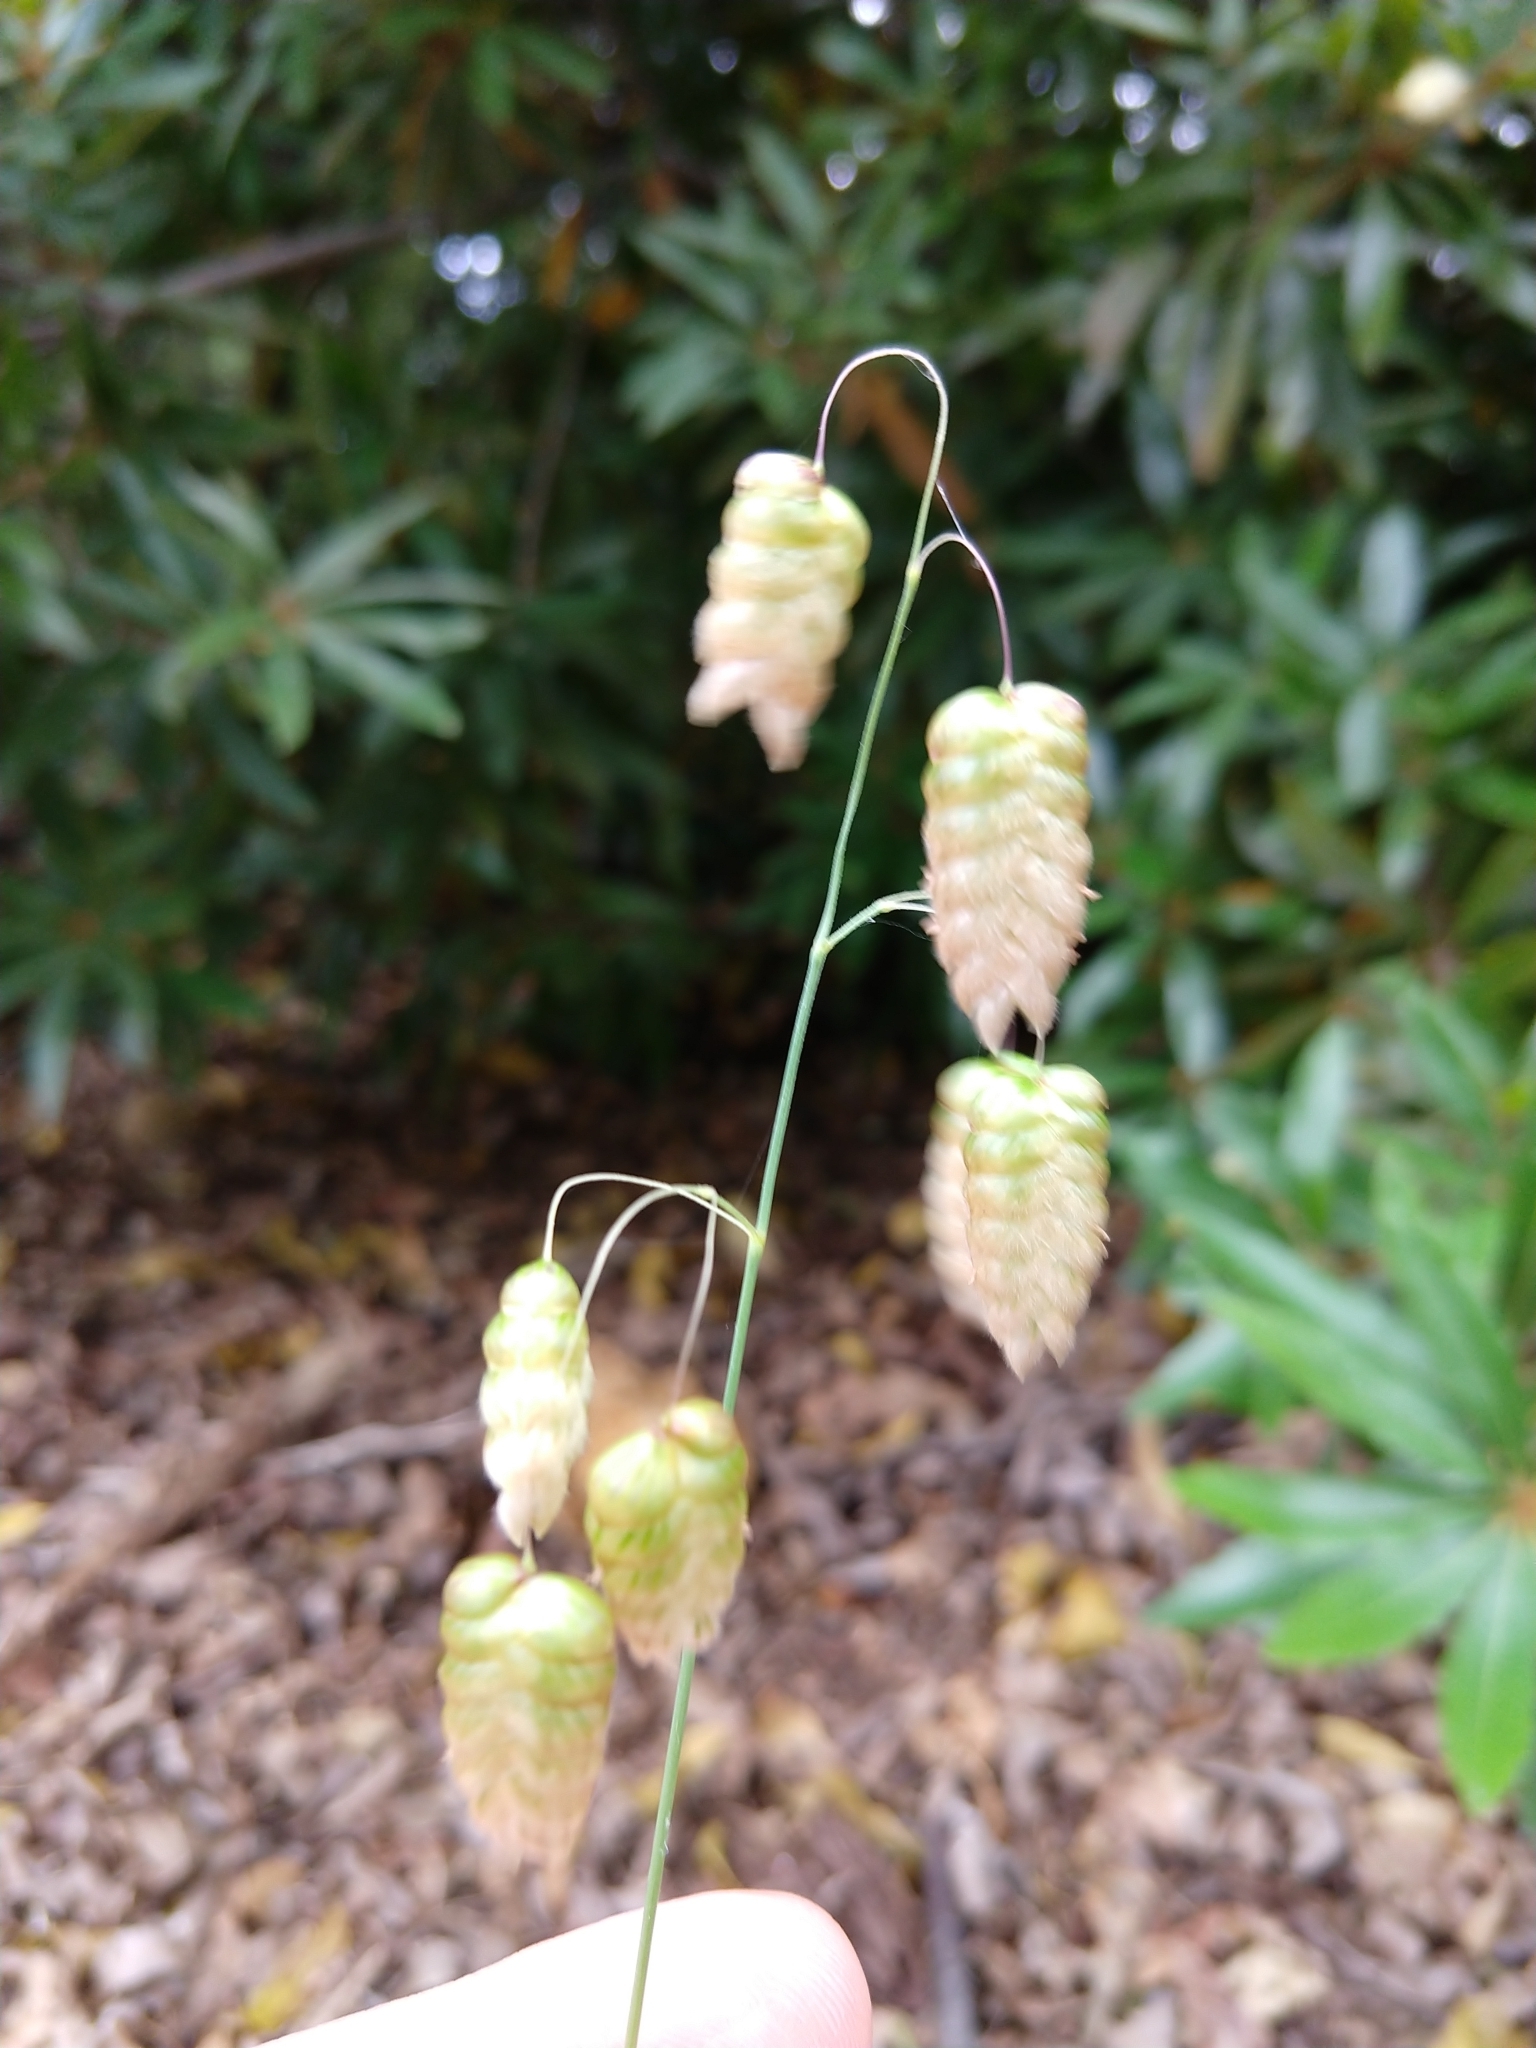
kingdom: Plantae
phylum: Tracheophyta
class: Liliopsida
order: Poales
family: Poaceae
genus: Briza
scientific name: Briza maxima
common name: Big quakinggrass
